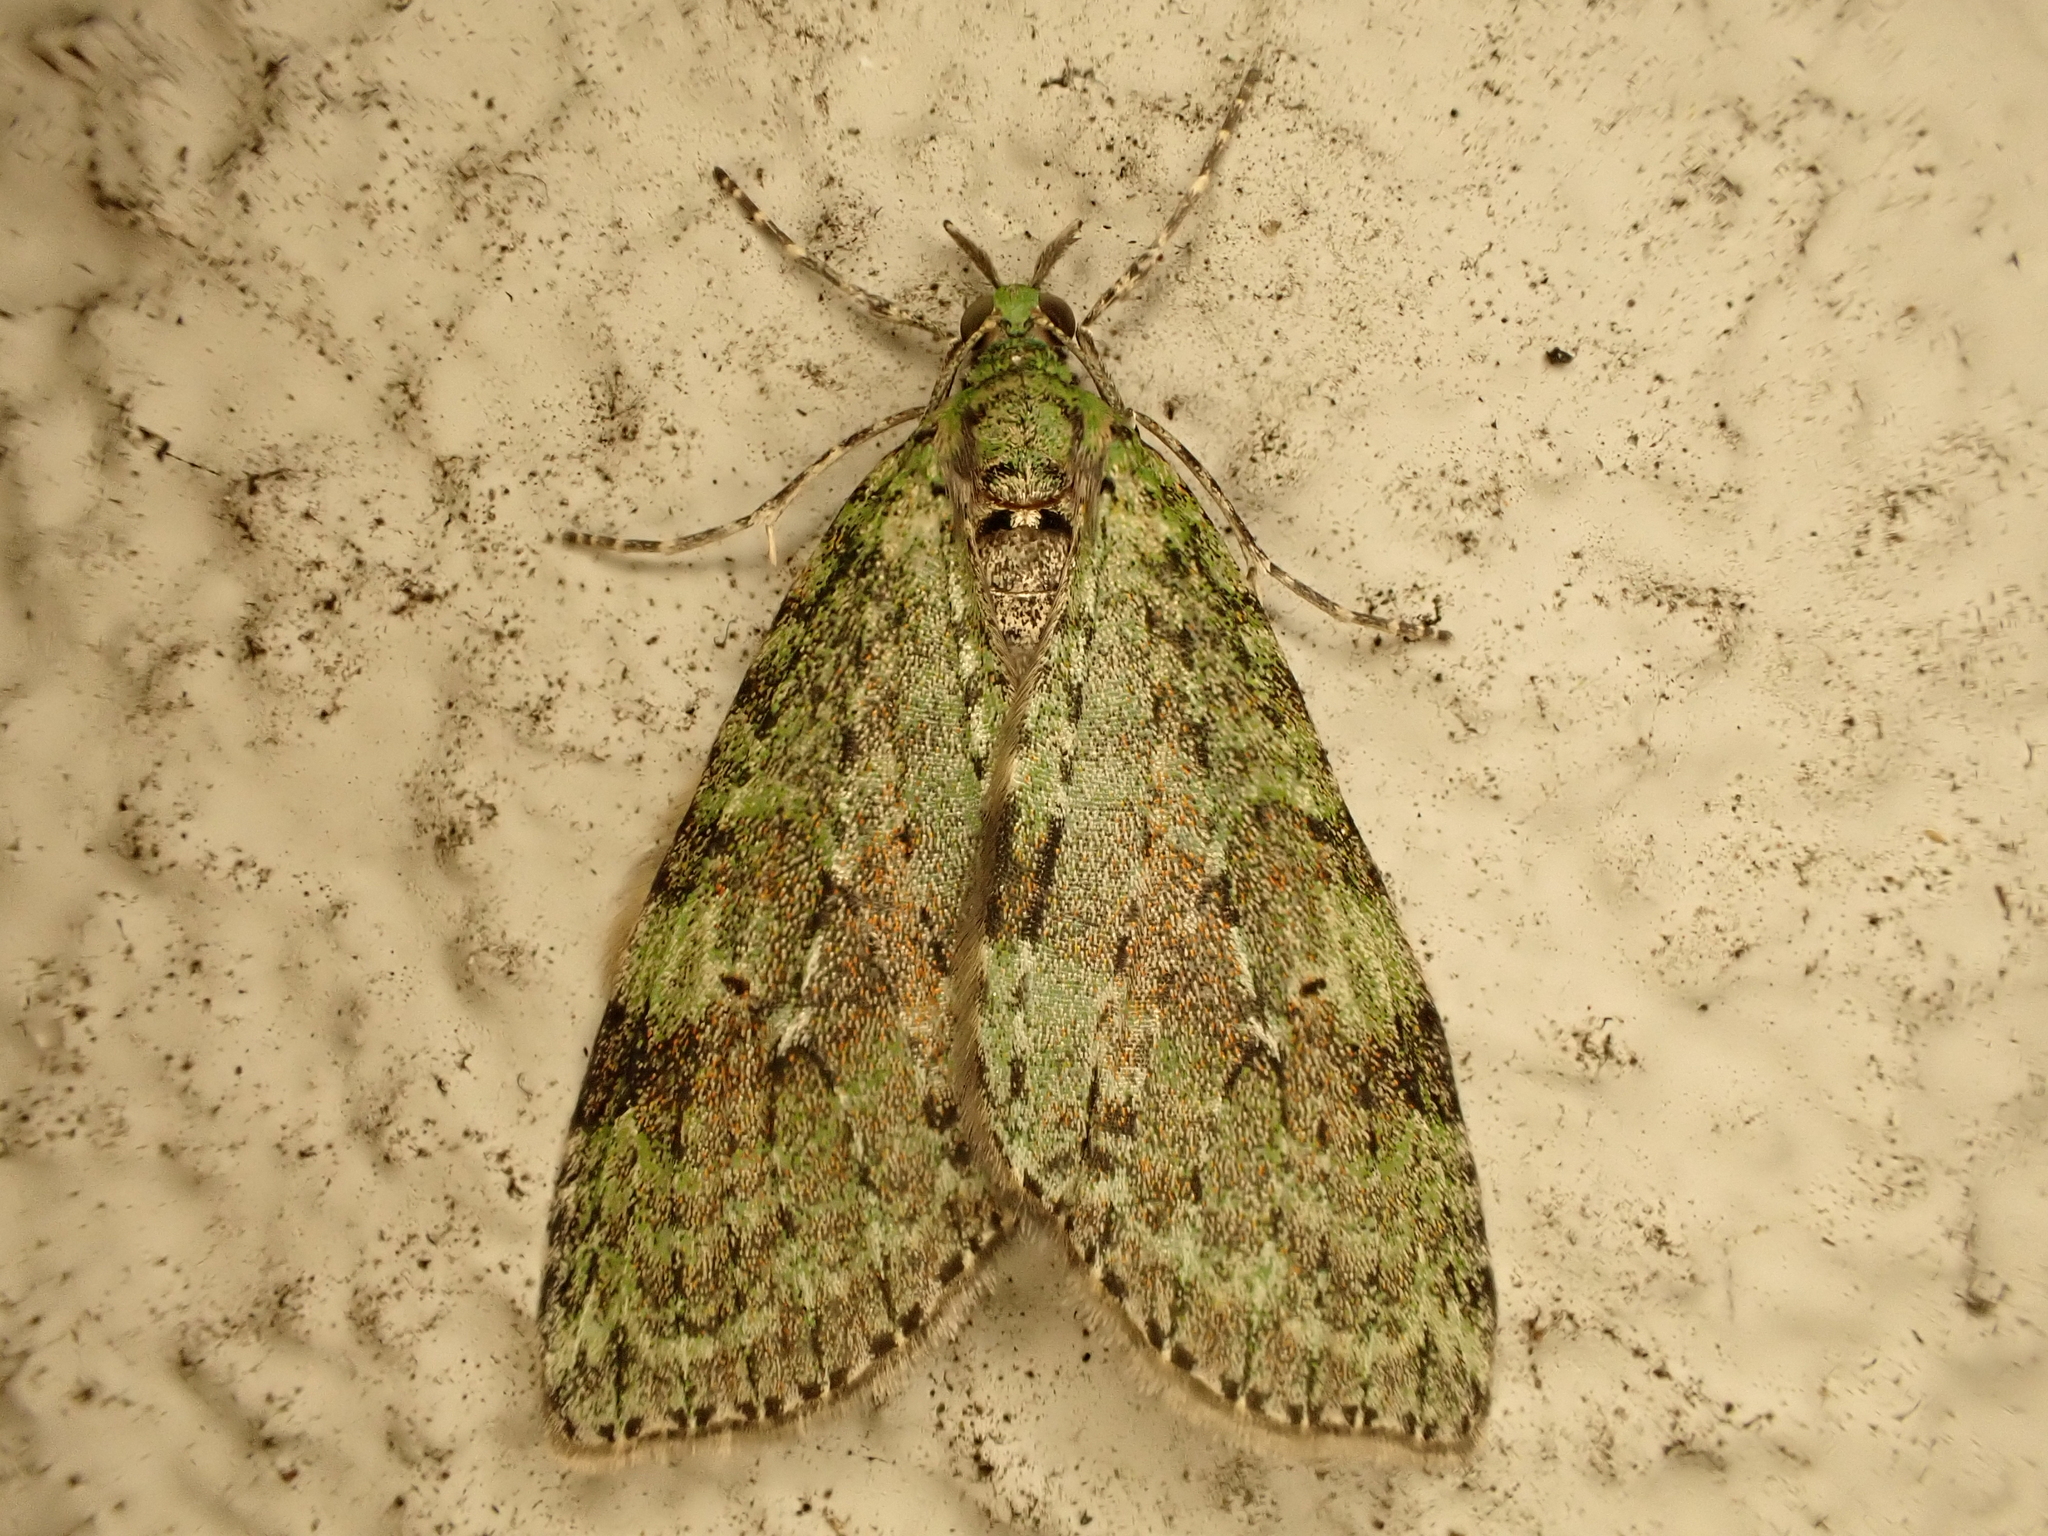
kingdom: Animalia
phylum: Arthropoda
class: Insecta
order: Lepidoptera
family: Geometridae
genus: Tatosoma
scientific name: Tatosoma transitaria
